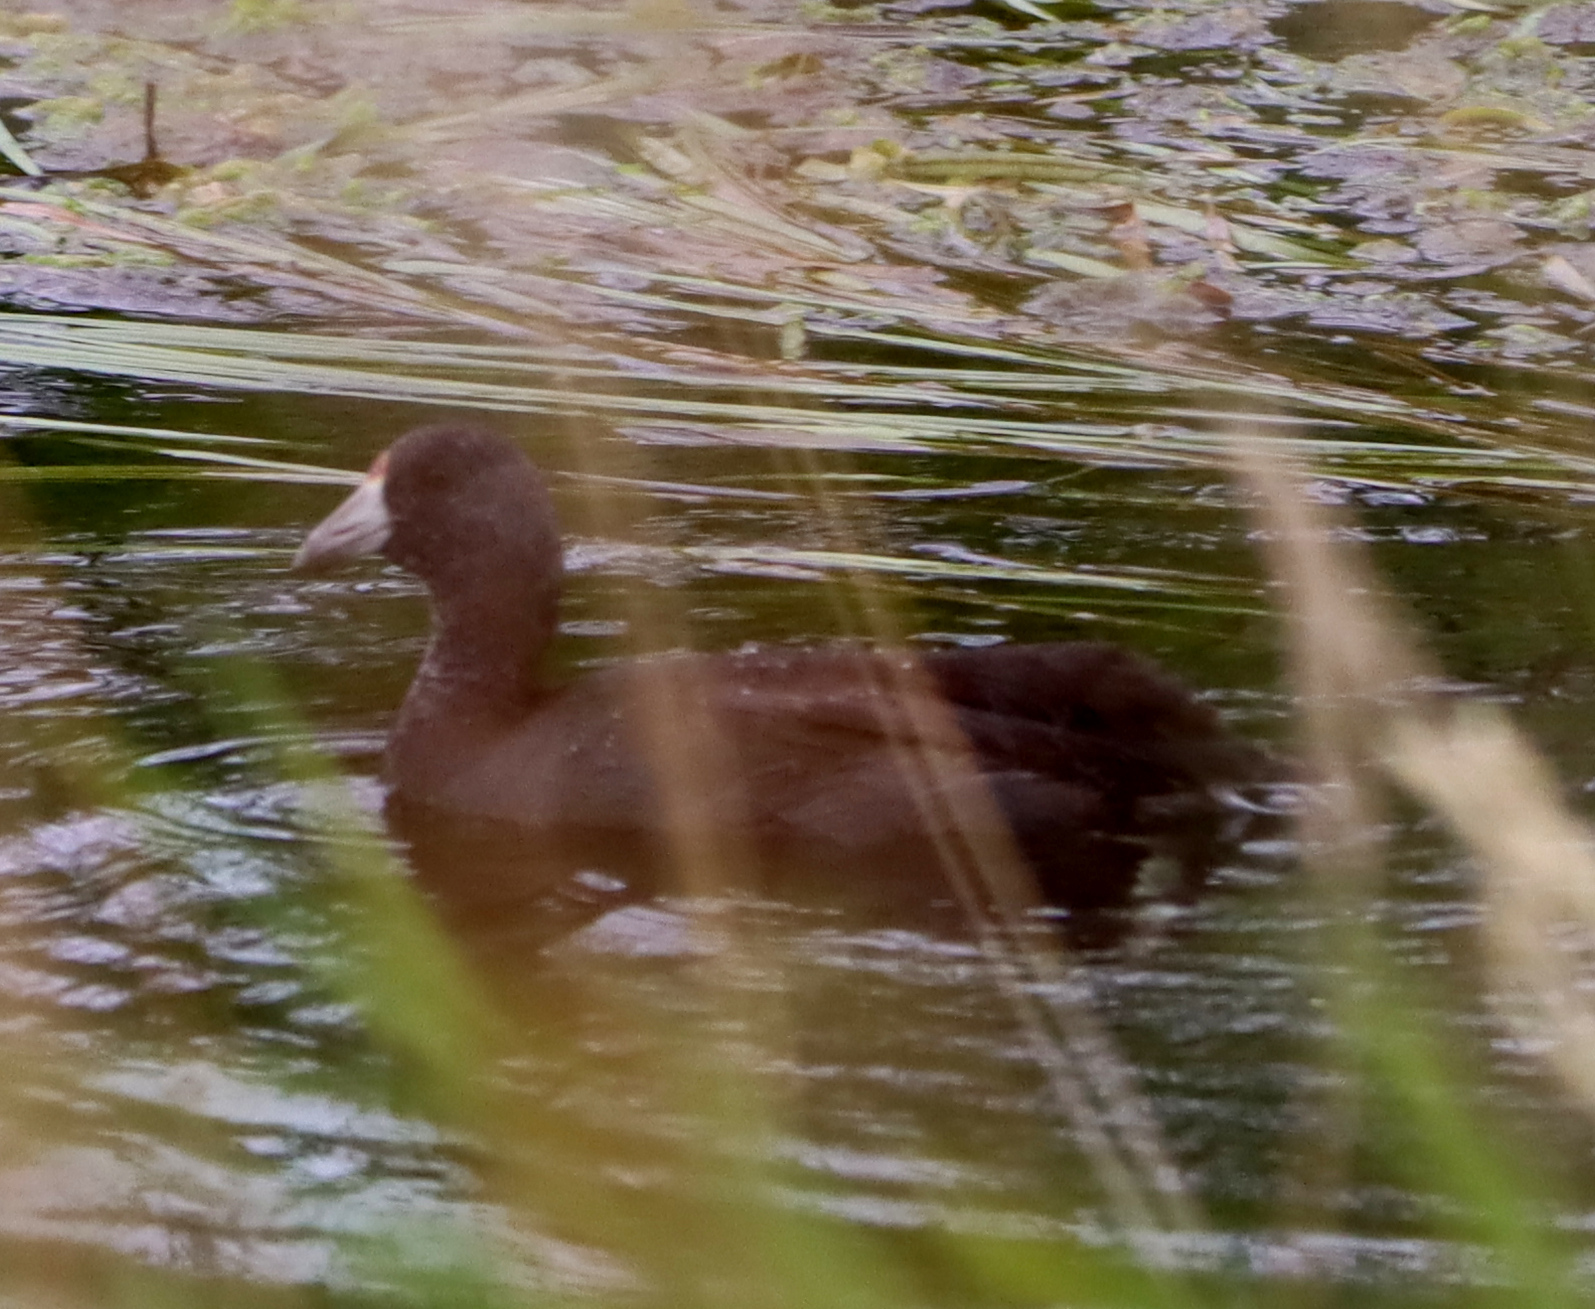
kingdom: Animalia
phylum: Chordata
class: Aves
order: Gruiformes
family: Rallidae
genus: Fulica
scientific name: Fulica americana
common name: American coot
